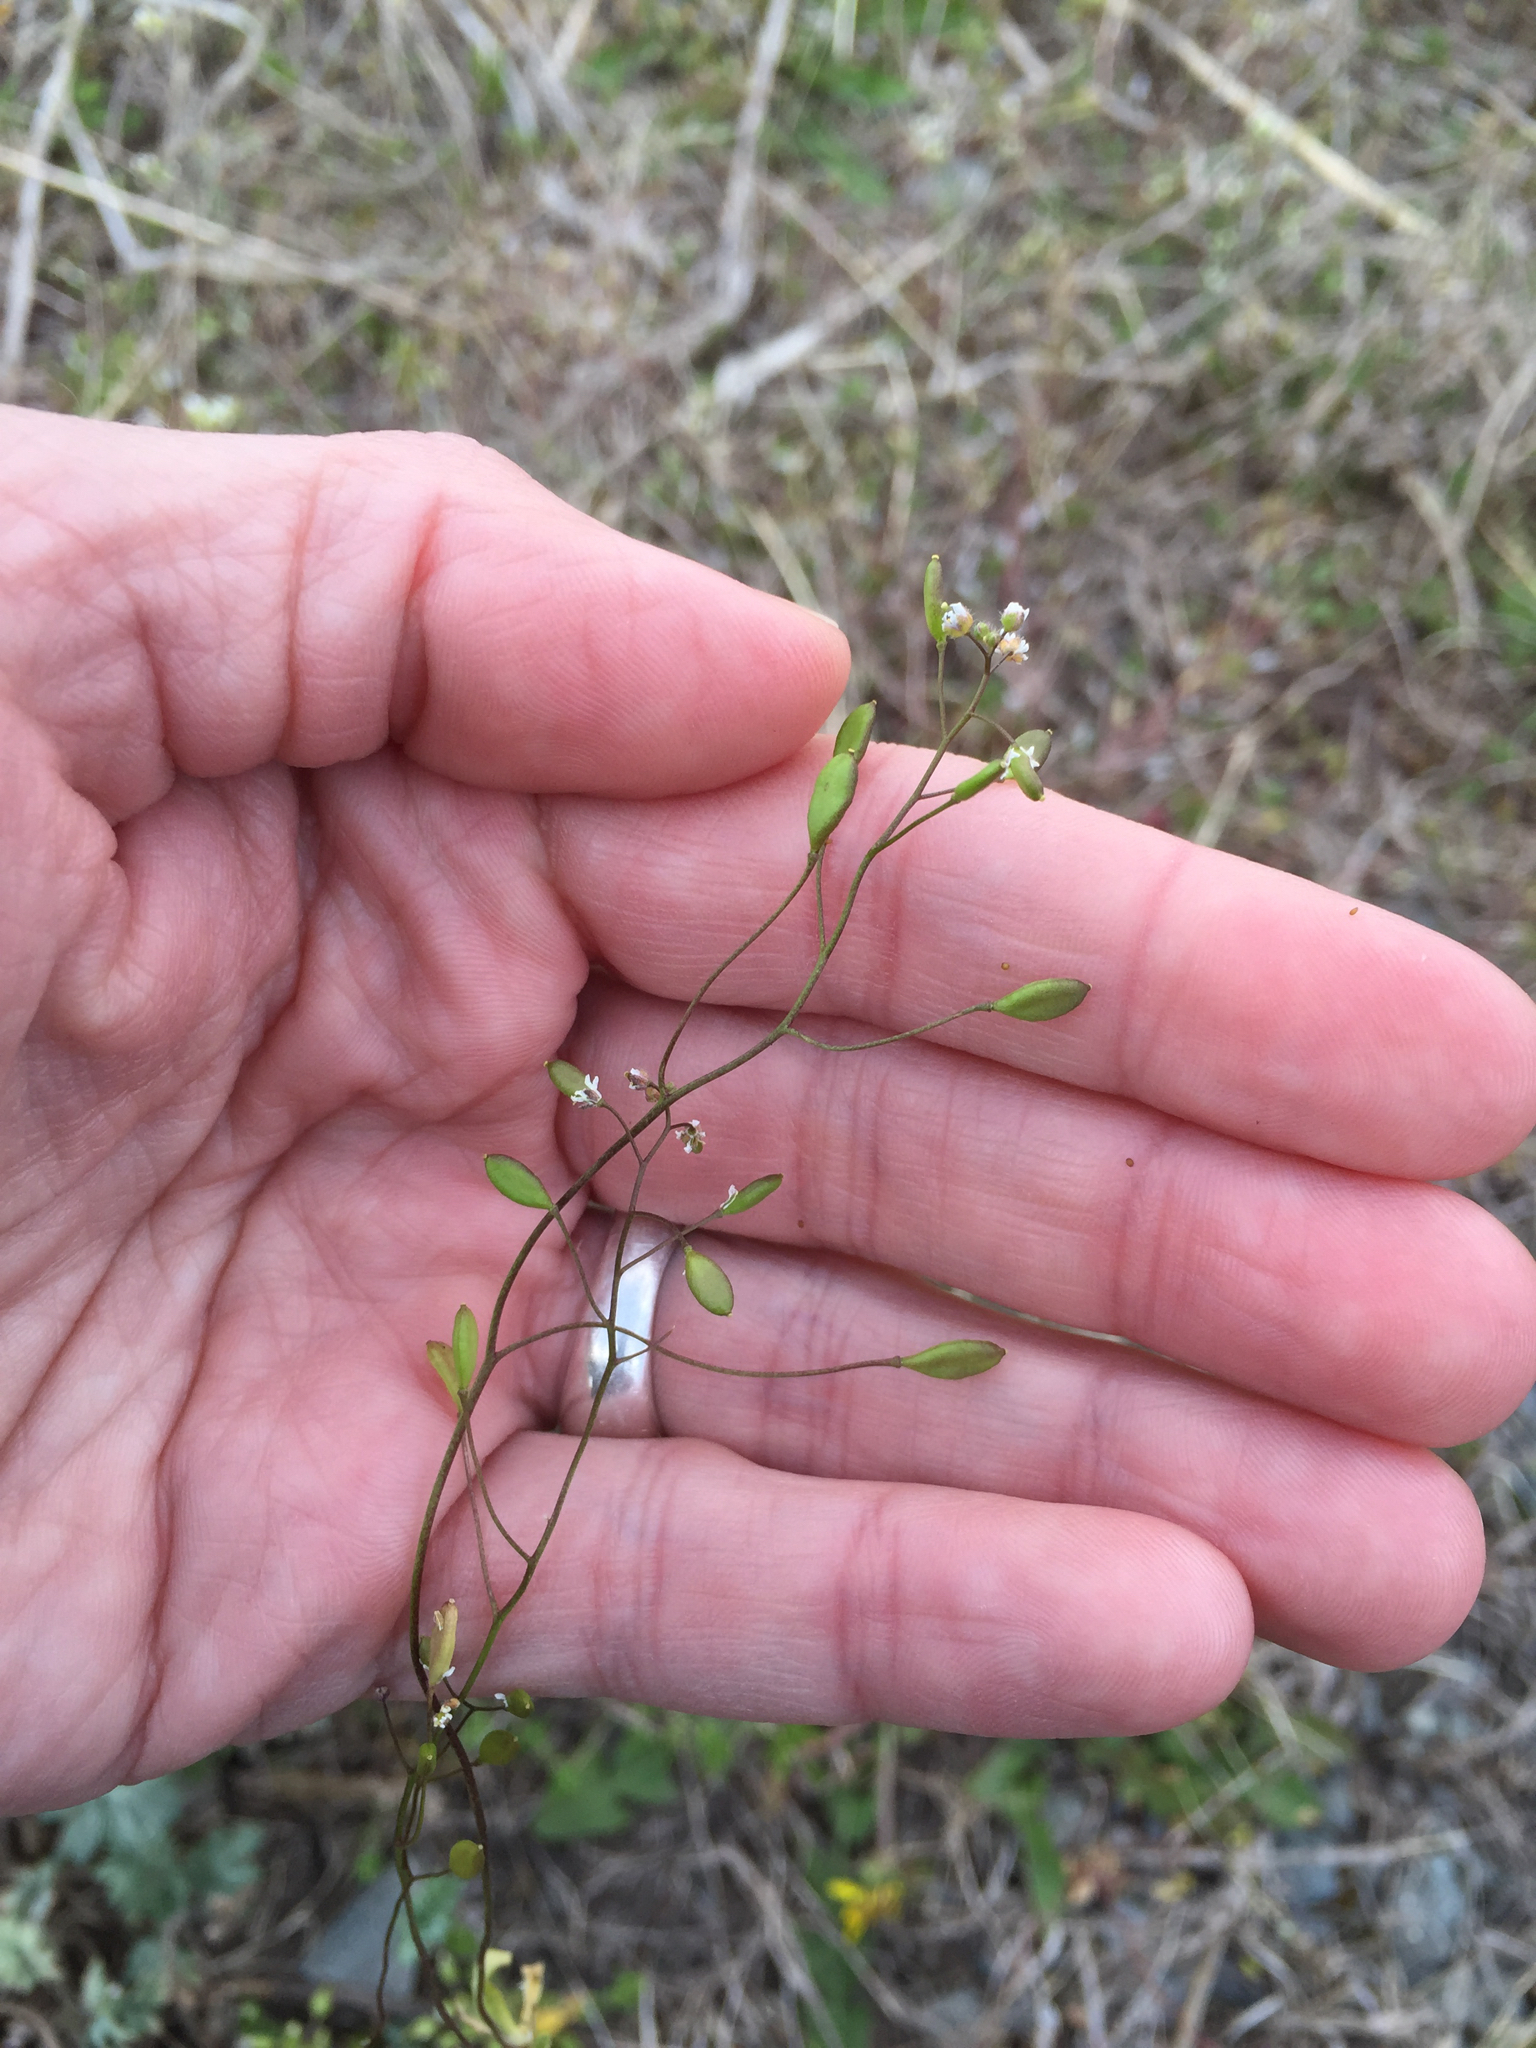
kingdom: Plantae
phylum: Tracheophyta
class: Magnoliopsida
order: Brassicales
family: Brassicaceae
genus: Draba
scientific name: Draba verna
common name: Spring draba
